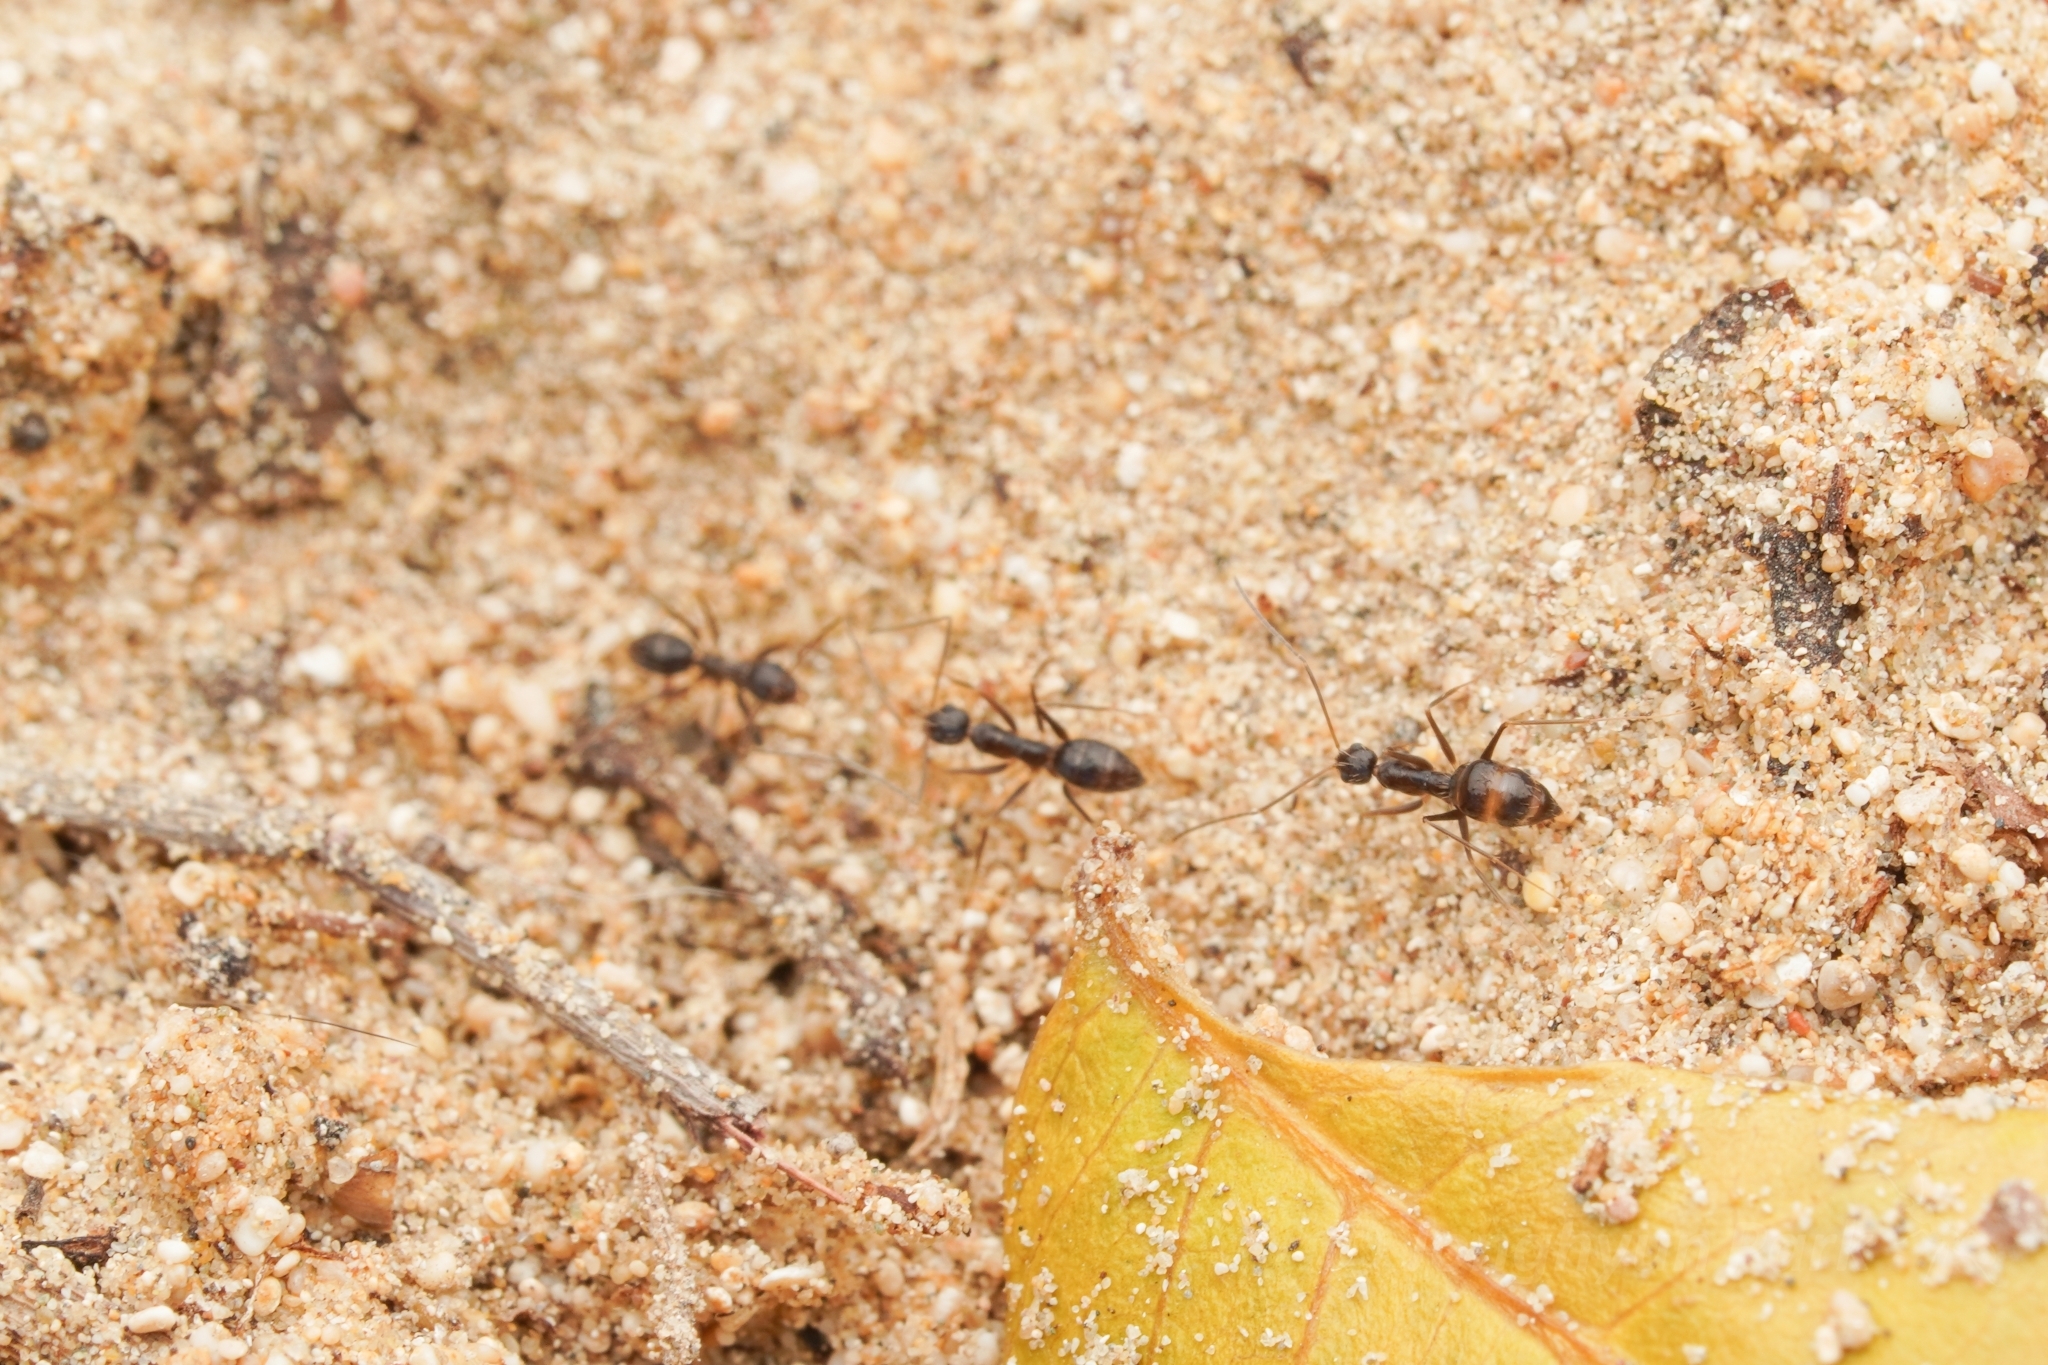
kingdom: Animalia
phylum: Arthropoda
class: Insecta
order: Hymenoptera
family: Formicidae
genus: Paratrechina
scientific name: Paratrechina longicornis
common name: Longhorned crazy ant
